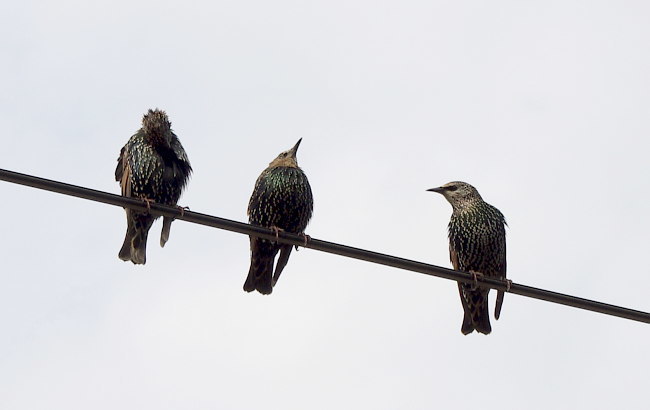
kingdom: Animalia
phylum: Chordata
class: Aves
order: Passeriformes
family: Sturnidae
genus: Sturnus
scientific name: Sturnus vulgaris
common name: Common starling
